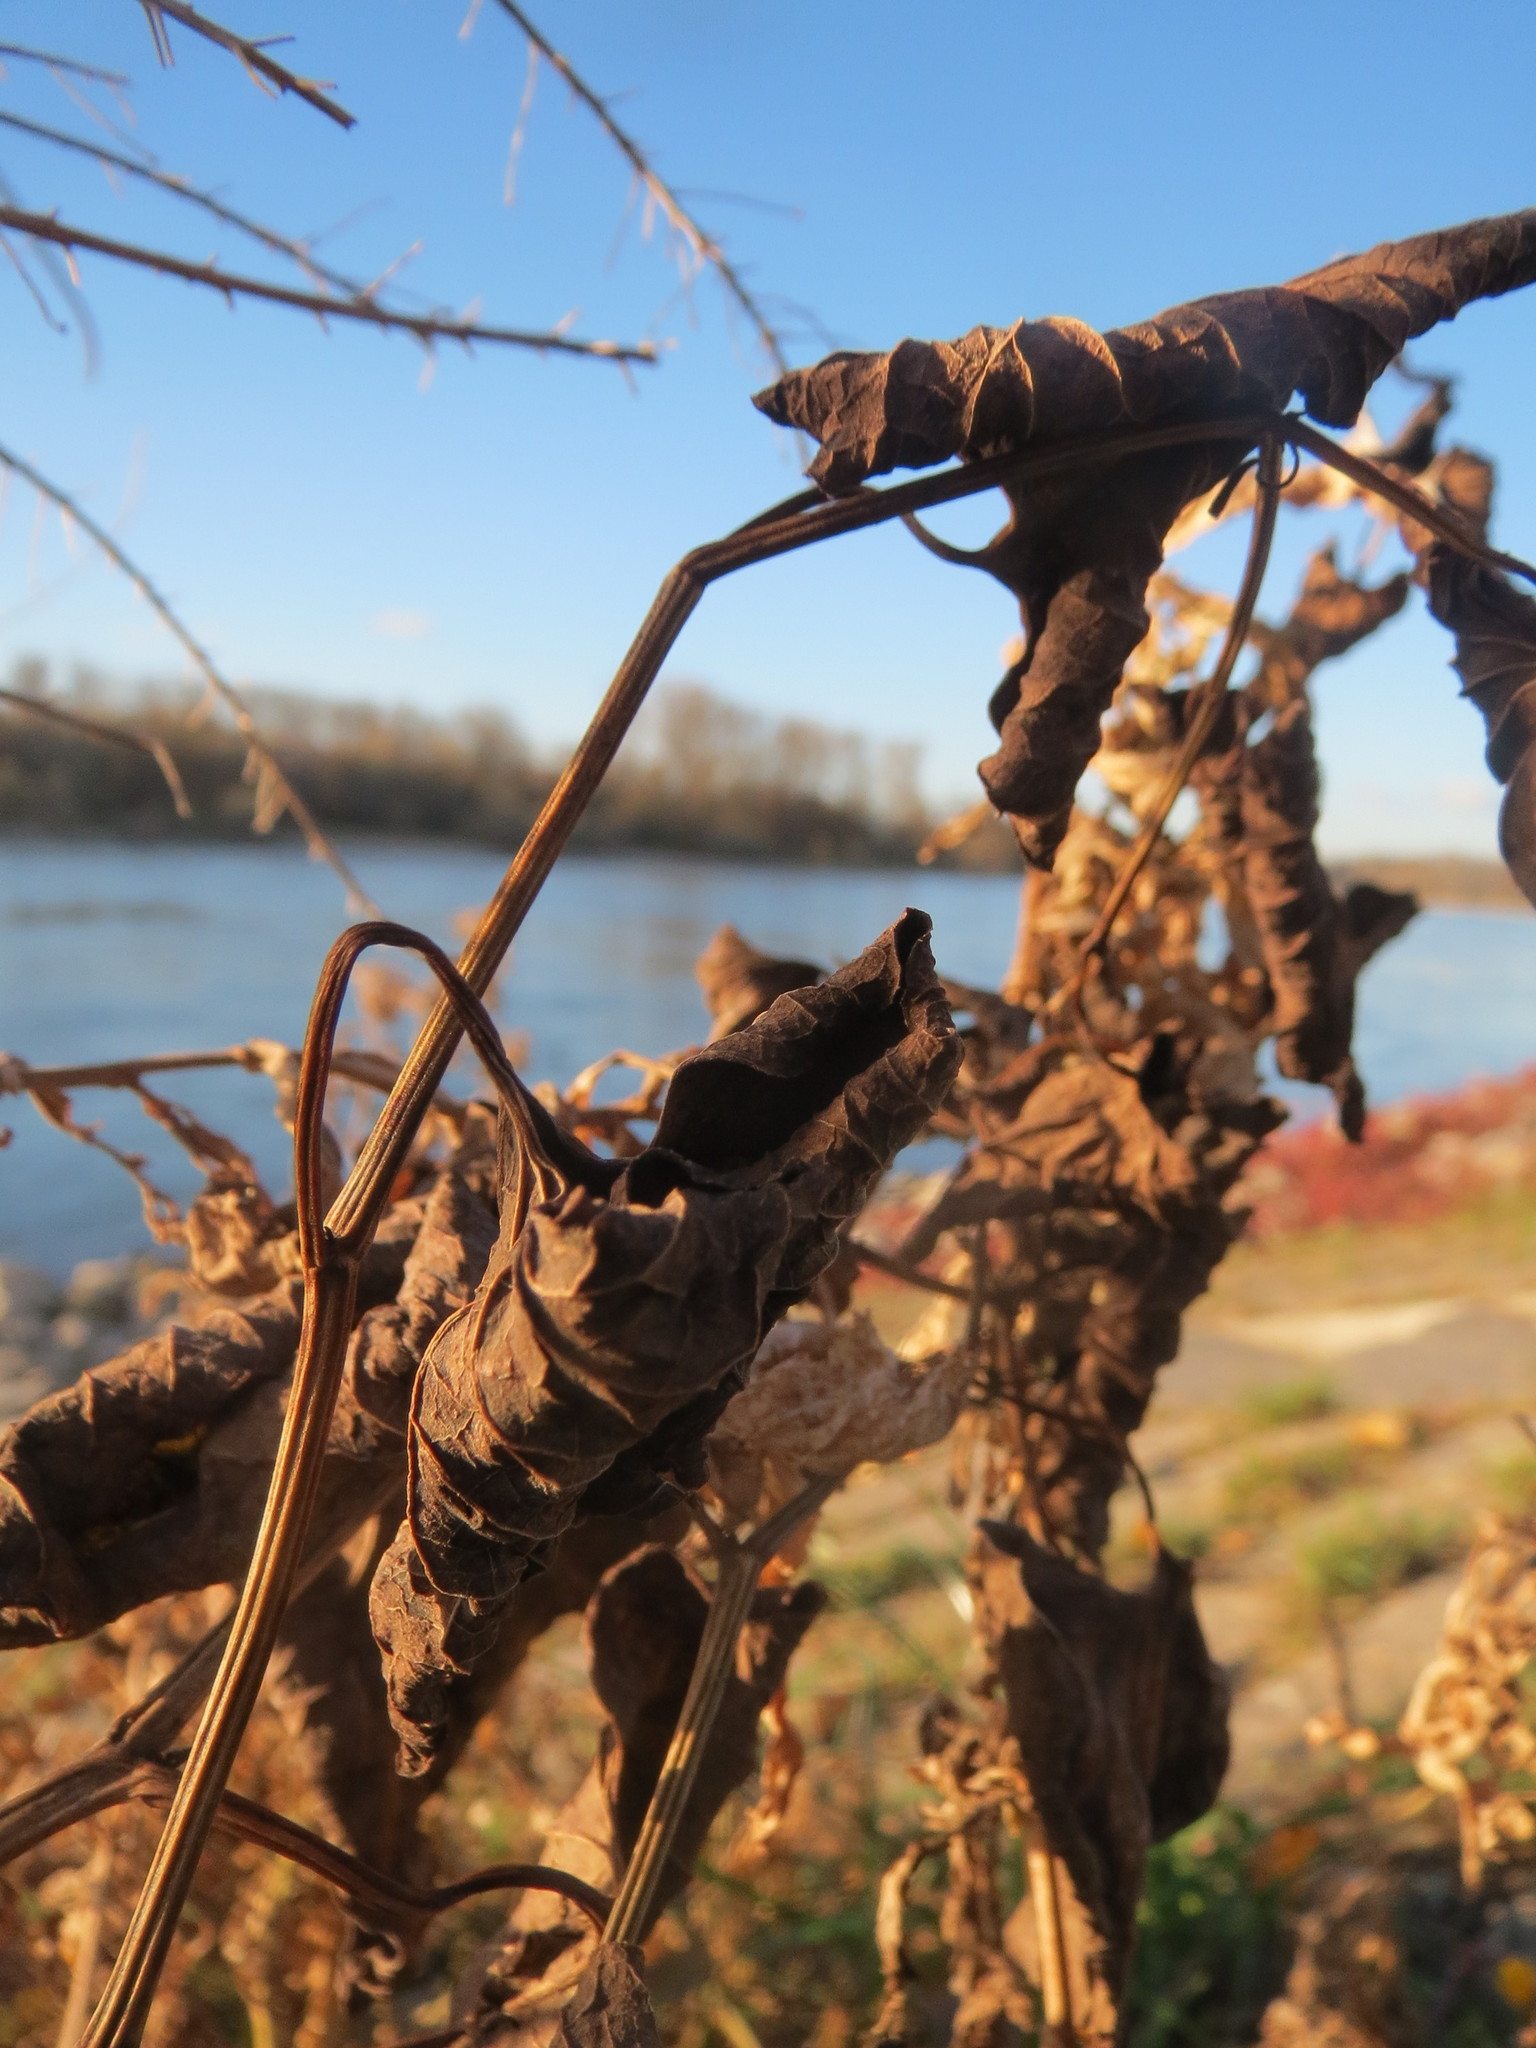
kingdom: Plantae
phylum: Tracheophyta
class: Magnoliopsida
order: Piperales
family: Aristolochiaceae
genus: Aristolochia
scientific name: Aristolochia clematitis
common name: Birthwort
